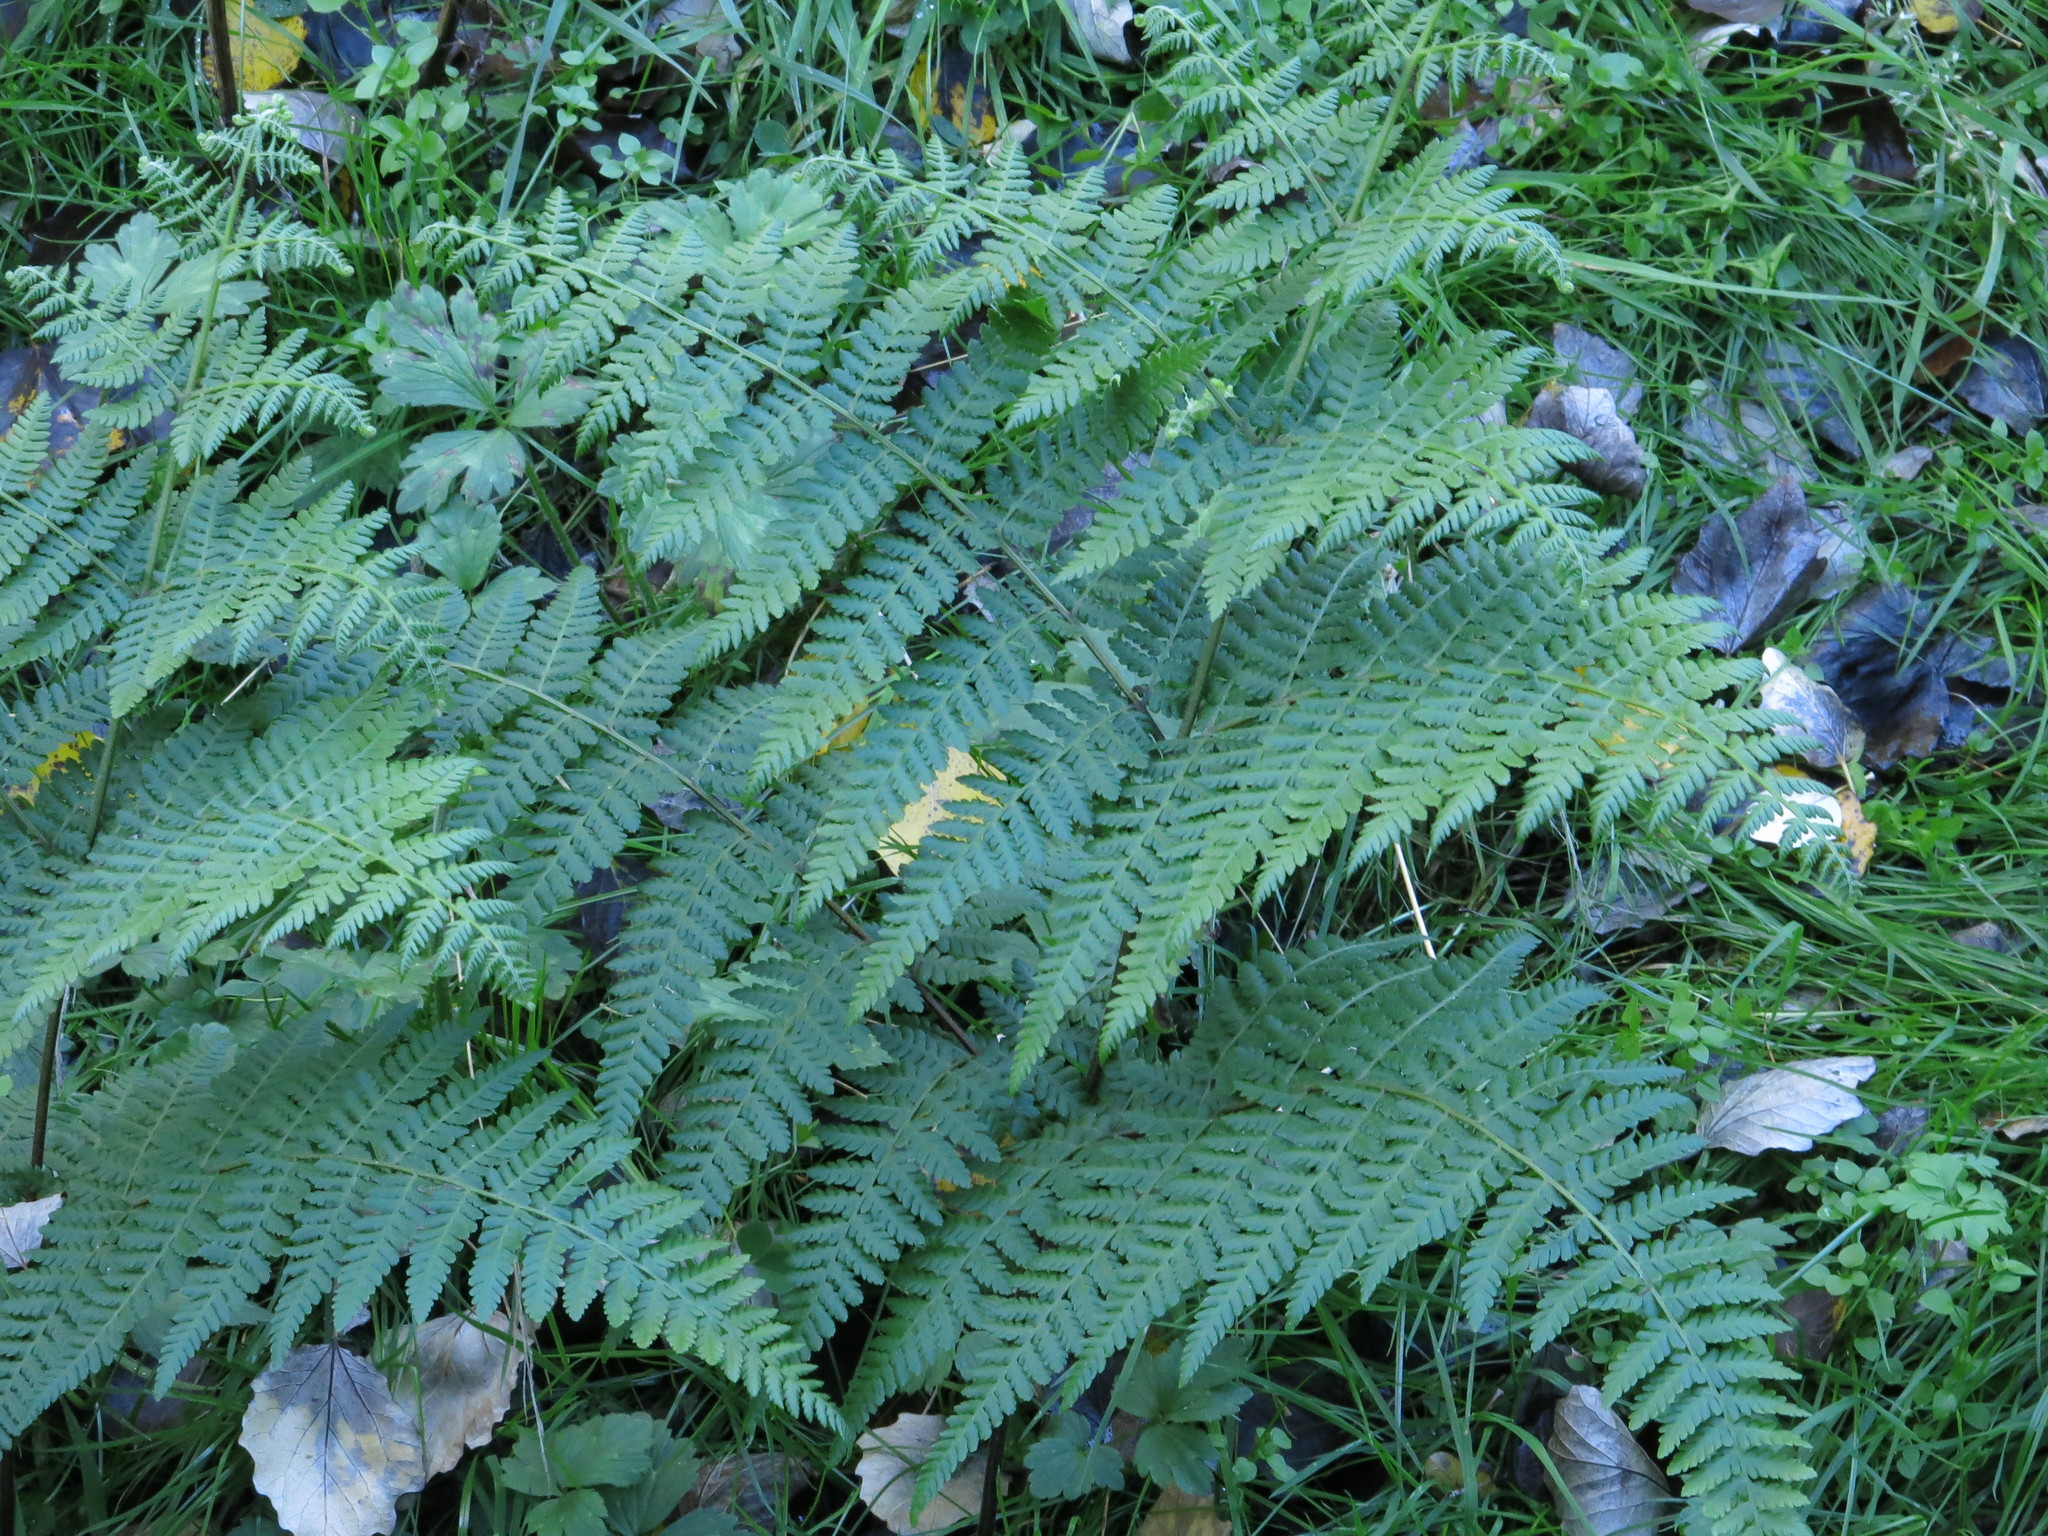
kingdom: Plantae
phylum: Tracheophyta
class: Polypodiopsida
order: Polypodiales
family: Dennstaedtiaceae
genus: Hypolepis
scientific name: Hypolepis ambigua
